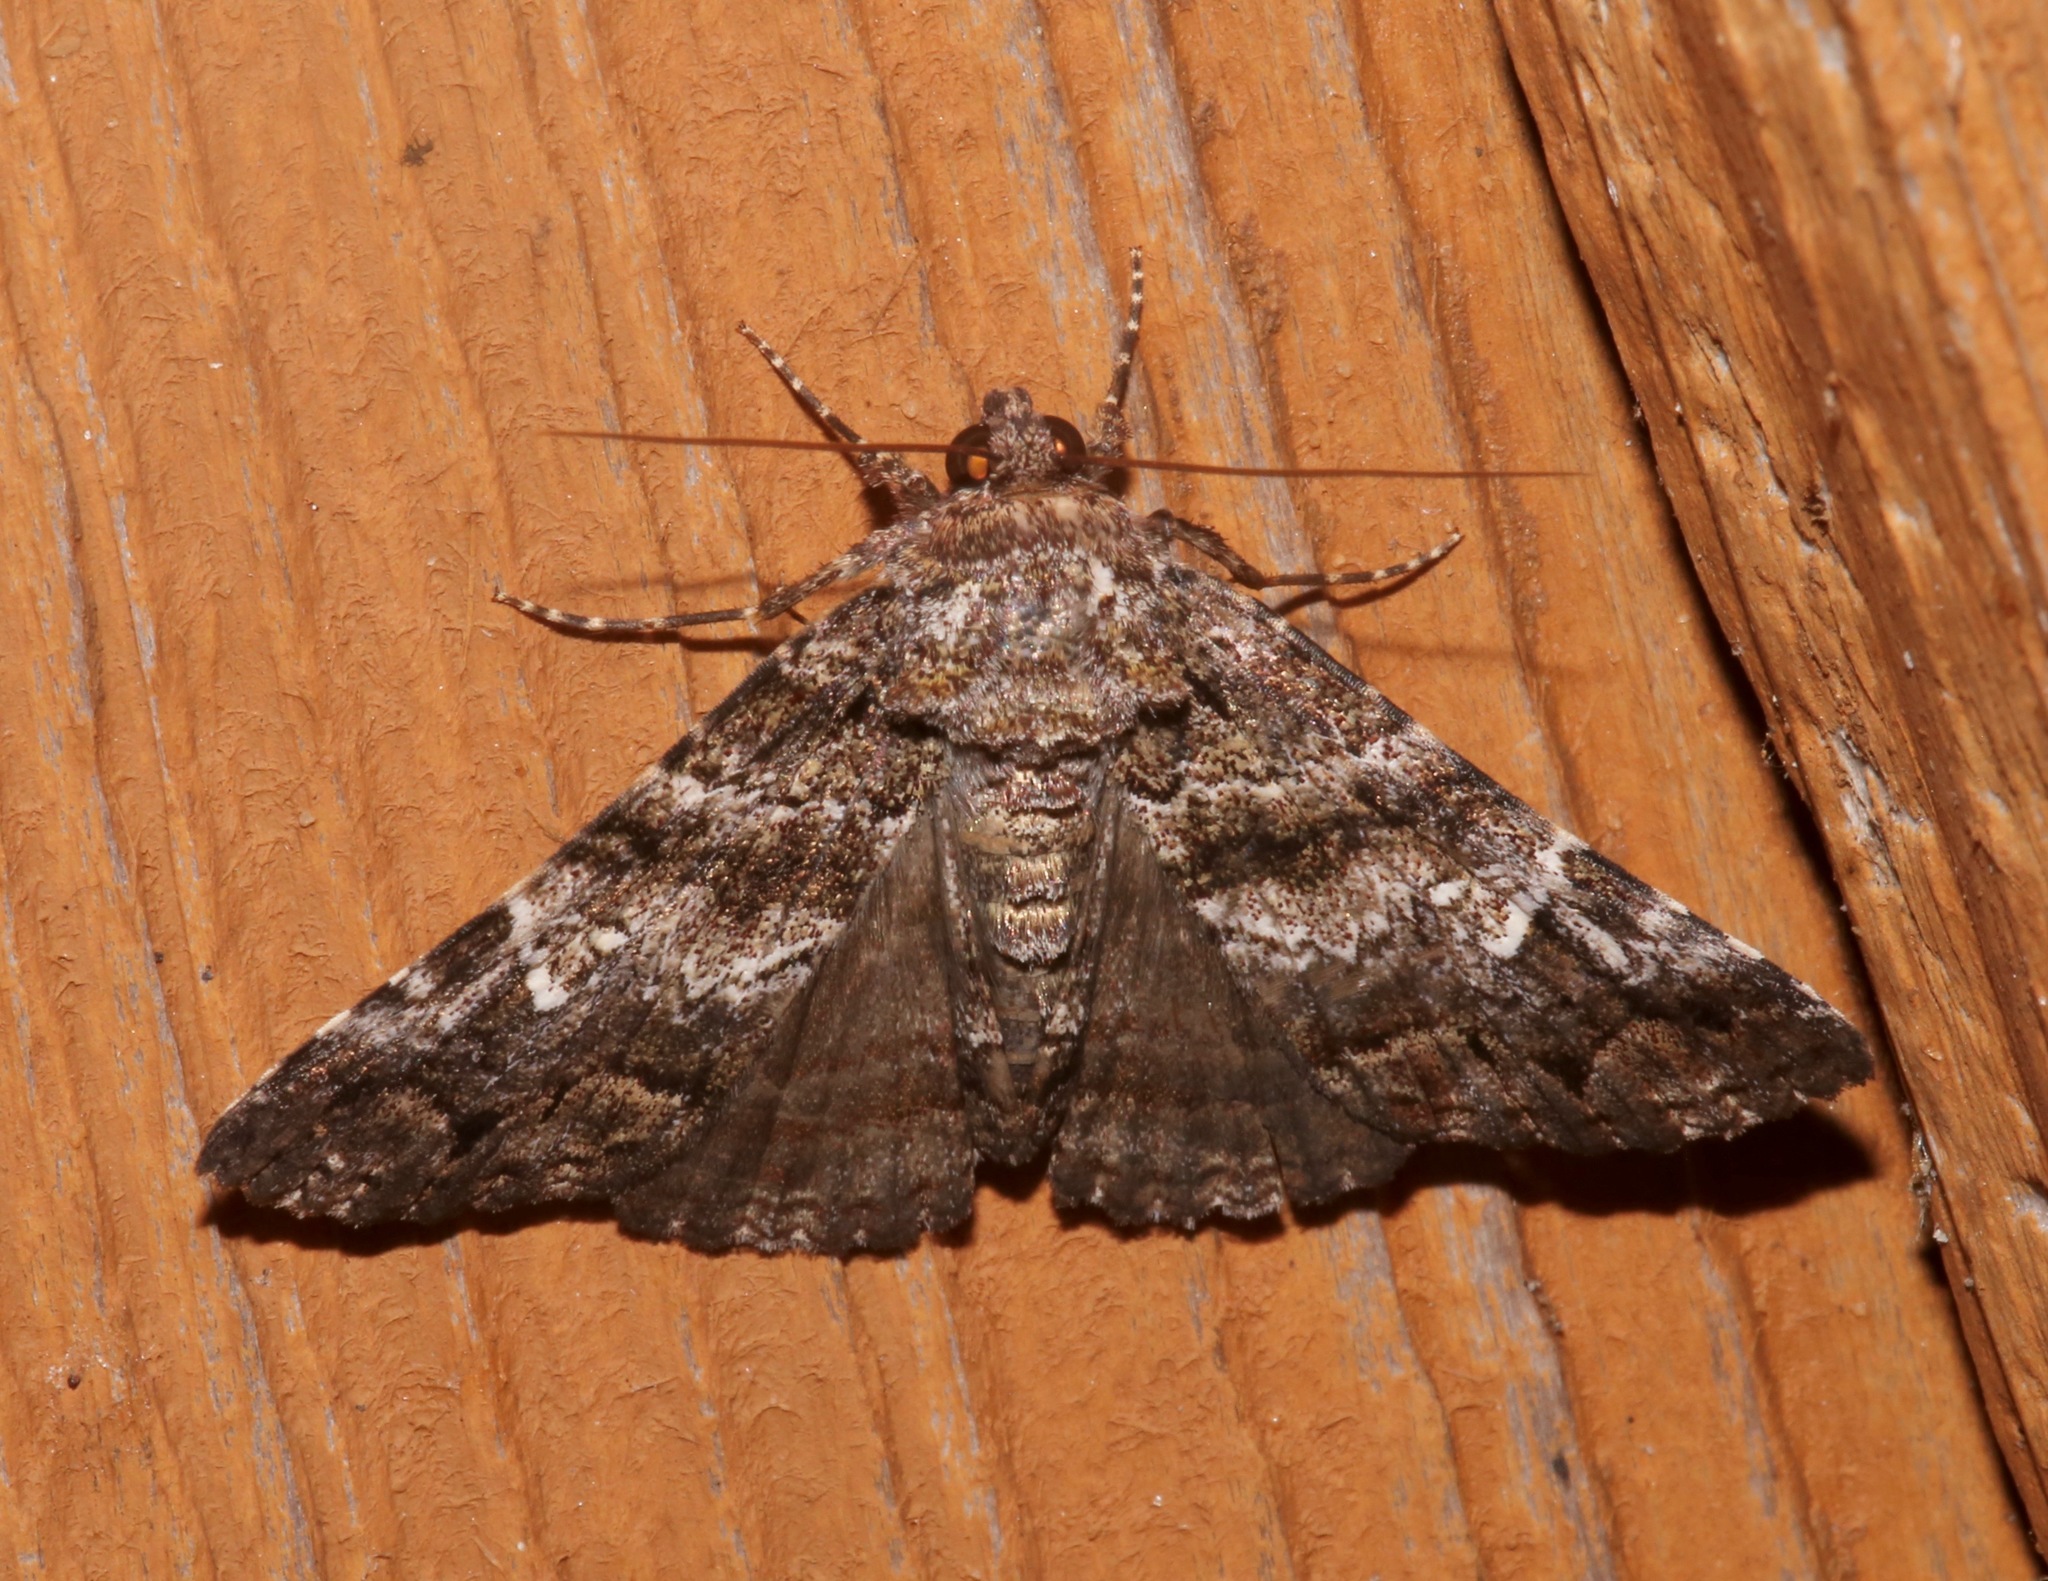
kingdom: Animalia
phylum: Arthropoda
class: Insecta
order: Lepidoptera
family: Erebidae
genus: Metria
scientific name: Metria amella
